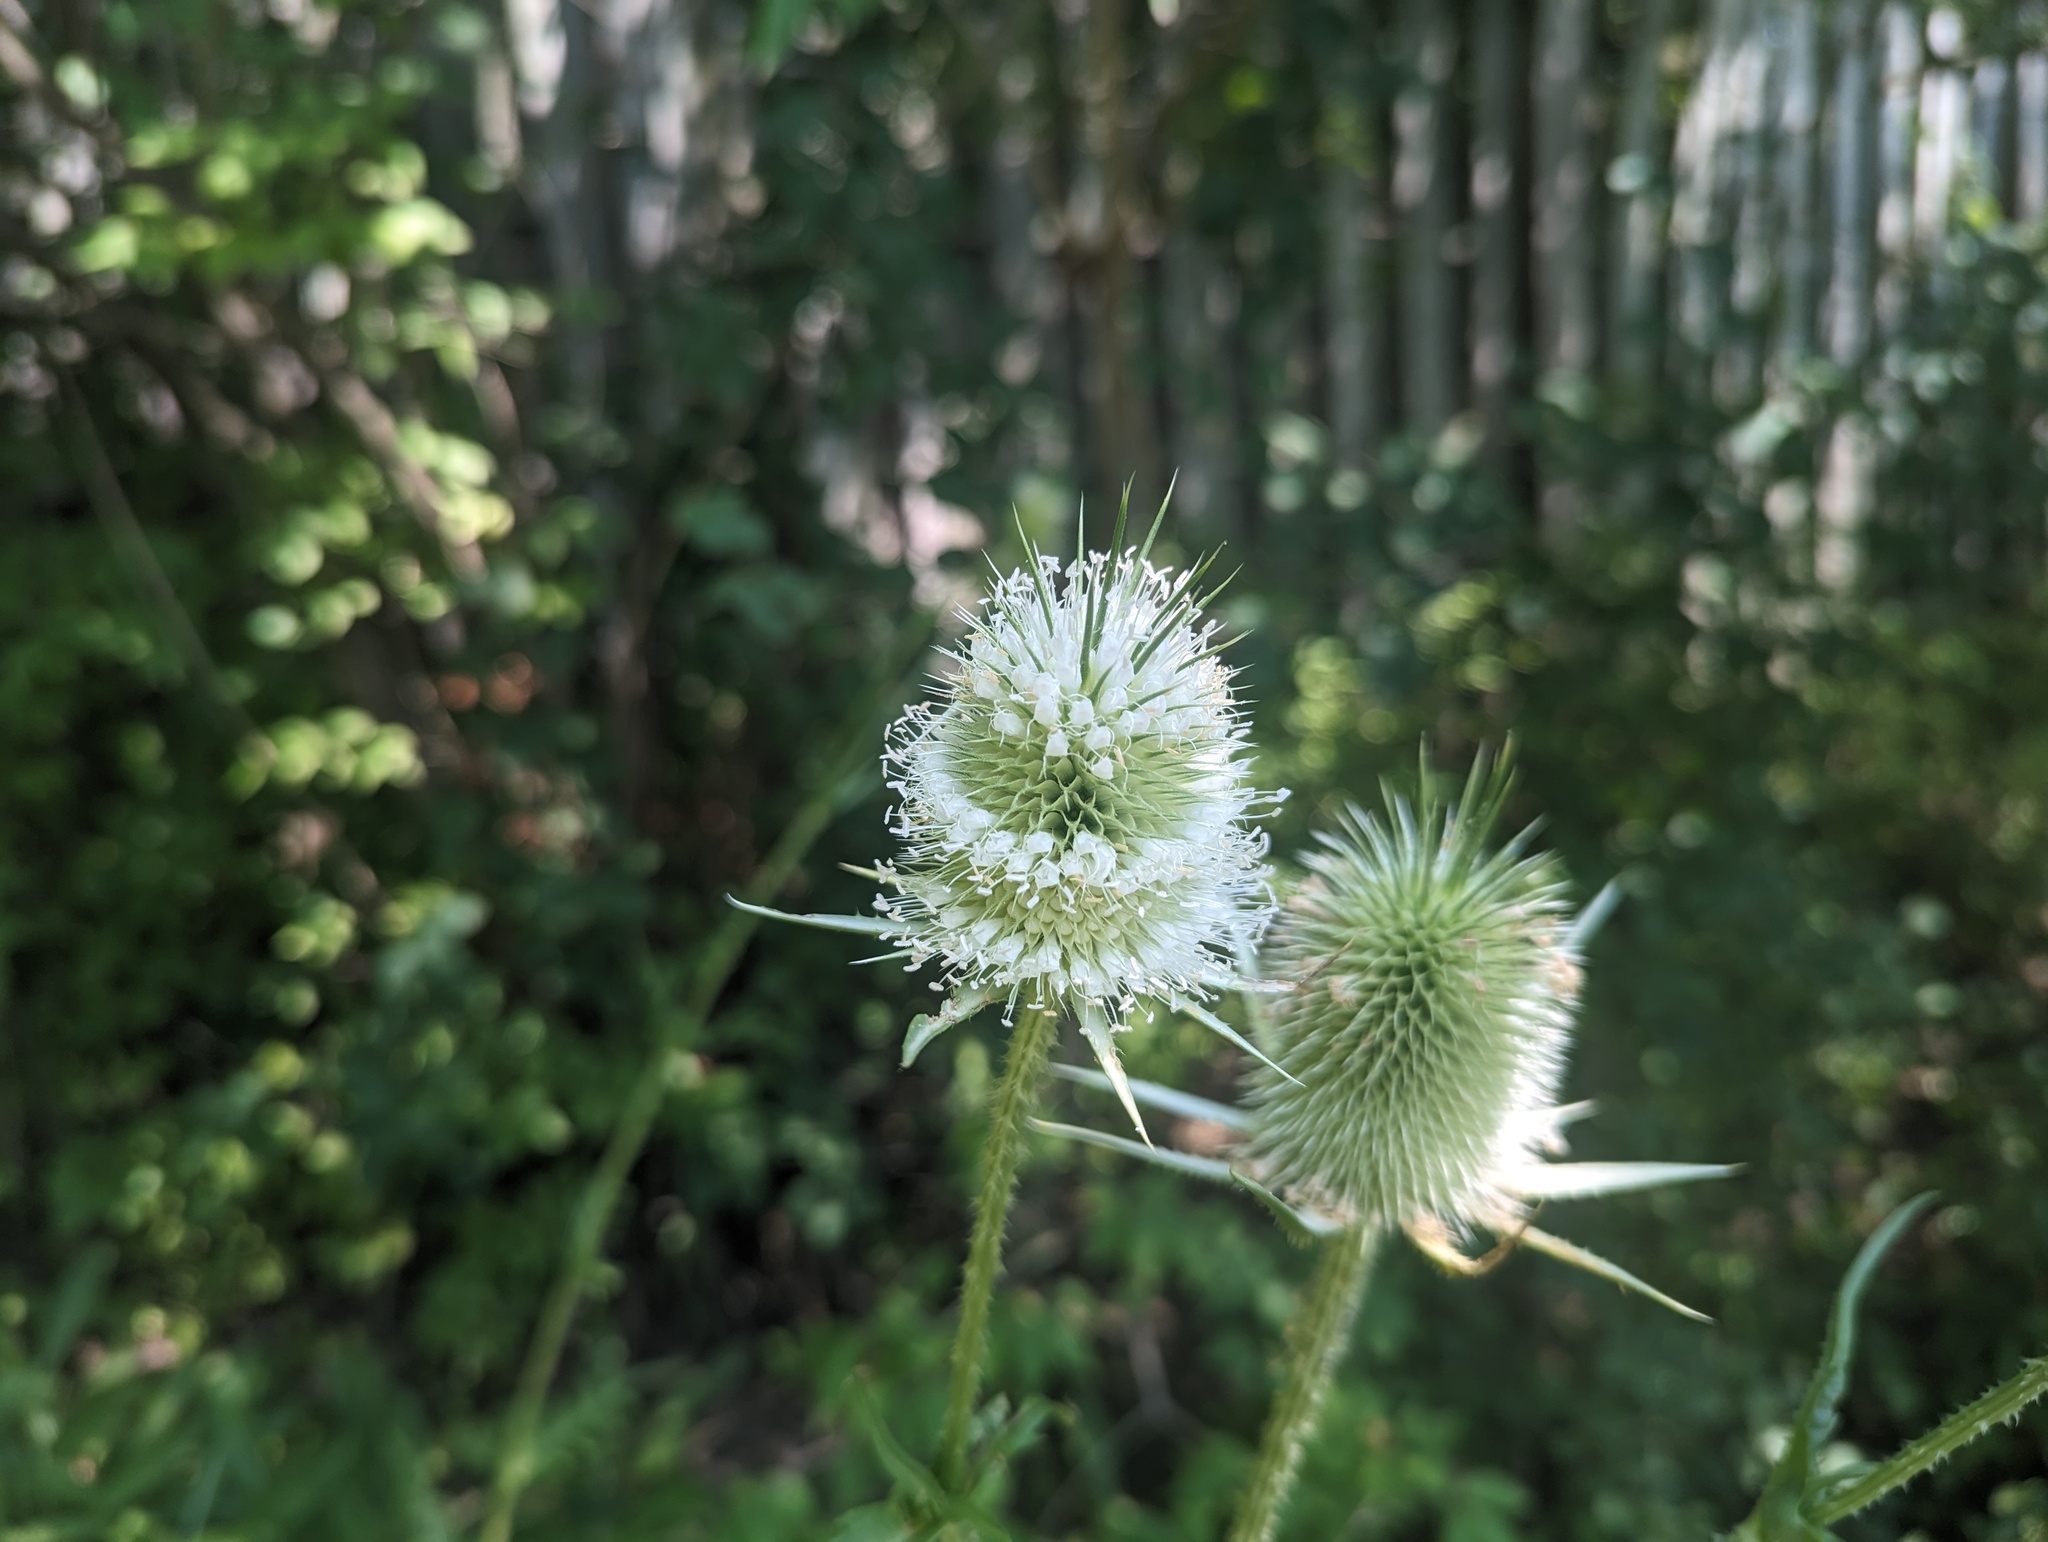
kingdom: Plantae
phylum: Tracheophyta
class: Magnoliopsida
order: Dipsacales
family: Caprifoliaceae
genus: Dipsacus
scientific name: Dipsacus laciniatus
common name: Cut-leaved teasel
